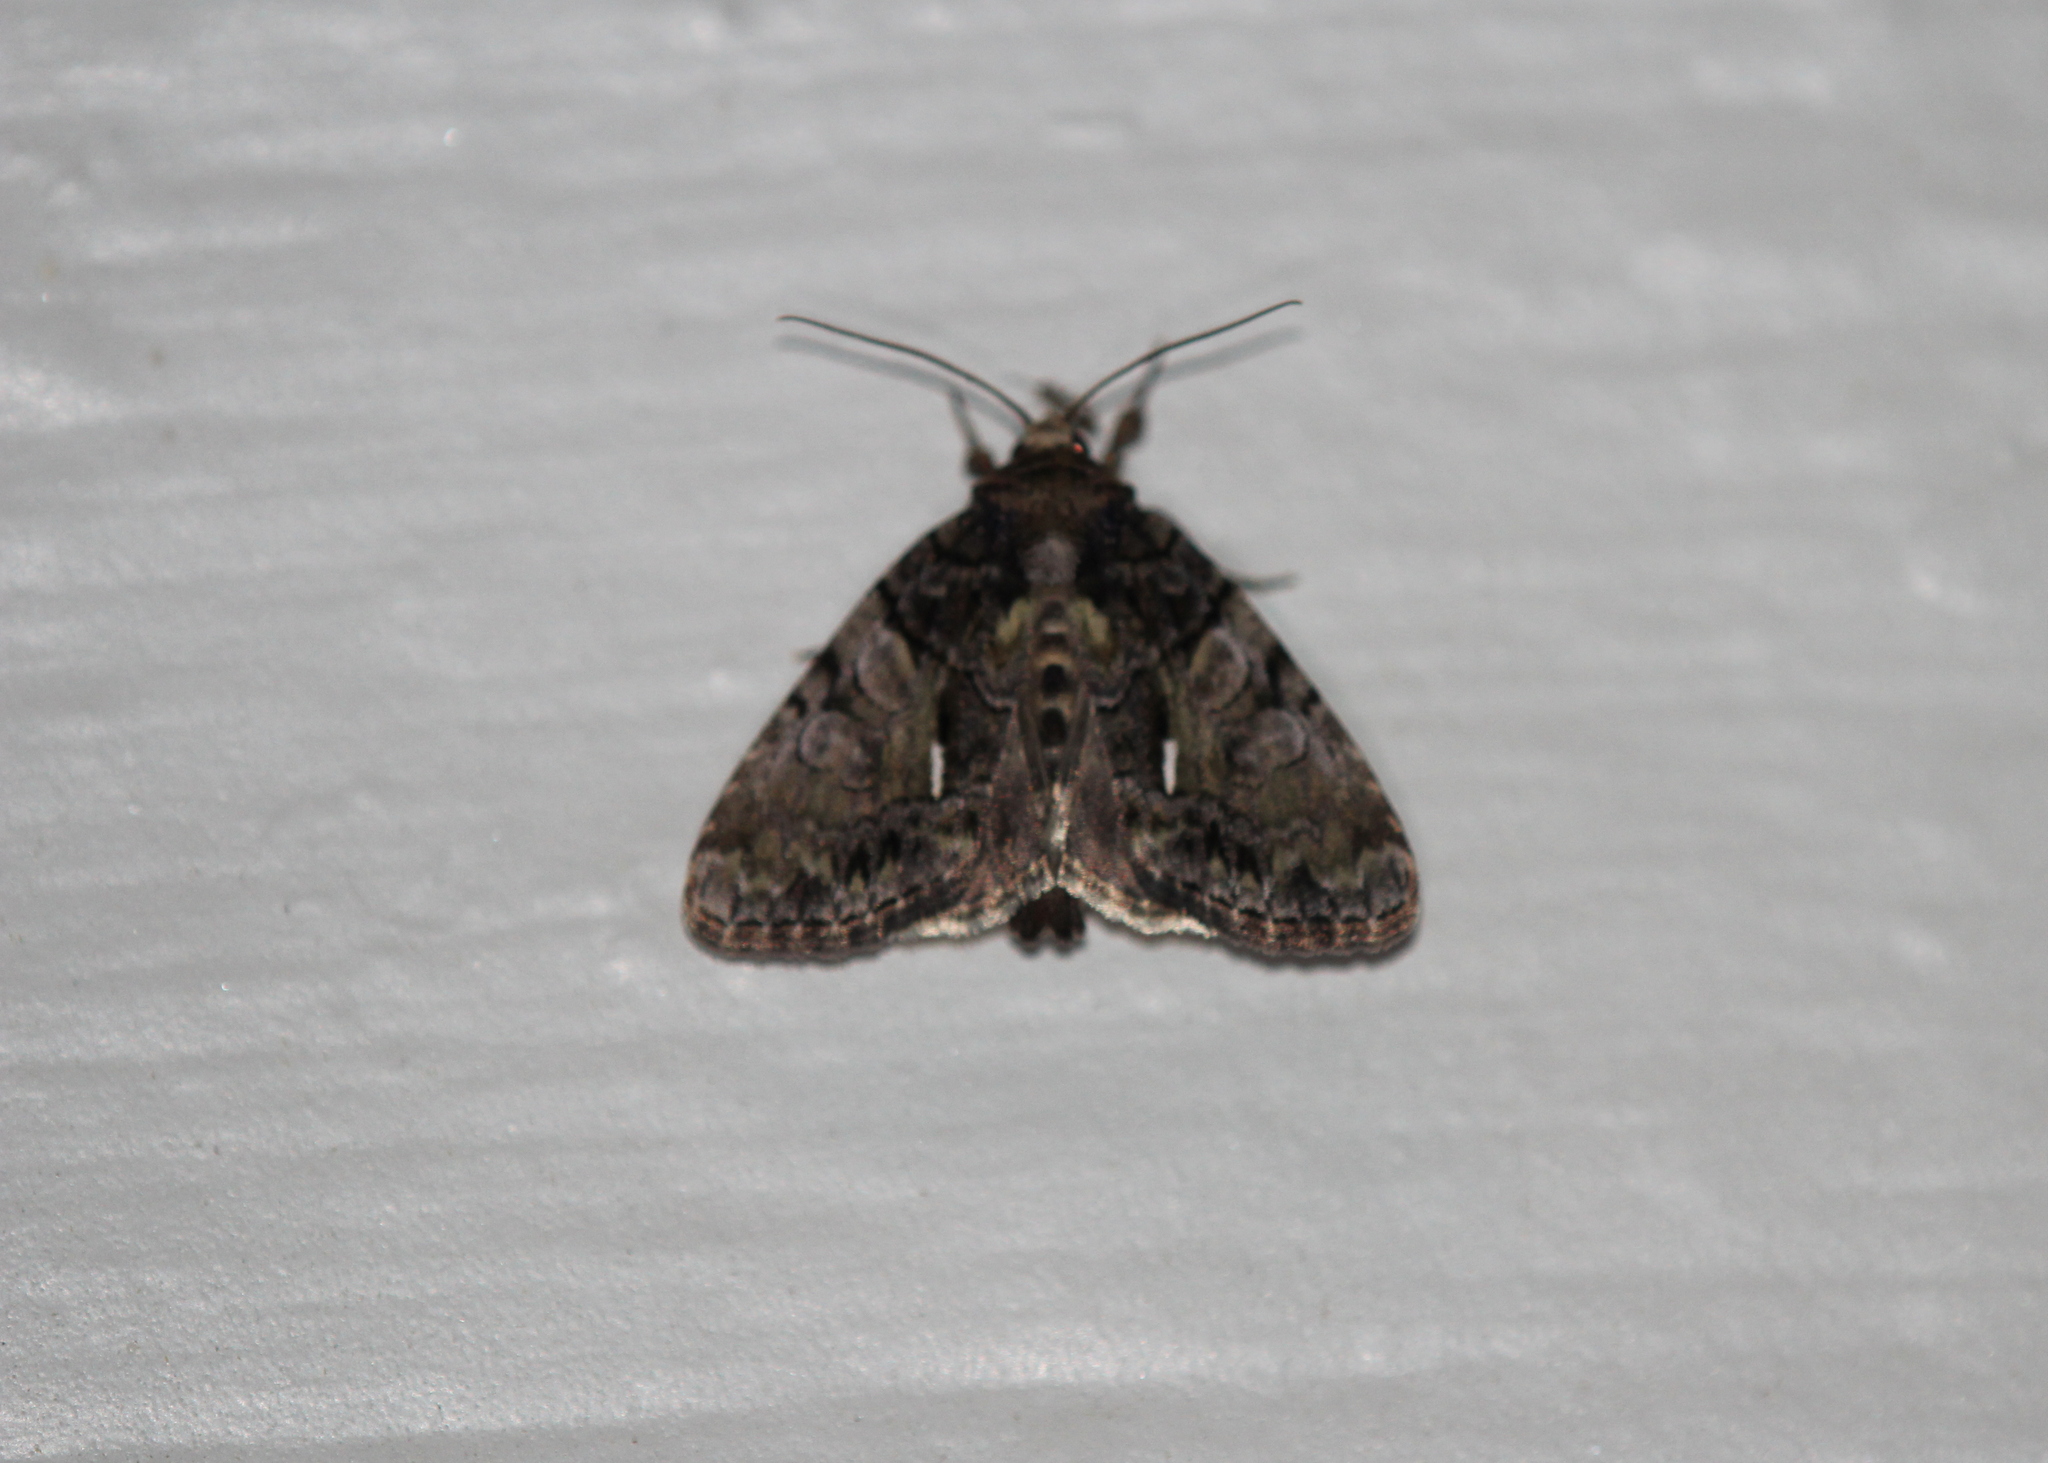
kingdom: Animalia
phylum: Arthropoda
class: Insecta
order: Lepidoptera
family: Noctuidae
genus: Chytonix
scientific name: Chytonix palliatricula
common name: Cloaked marvel
